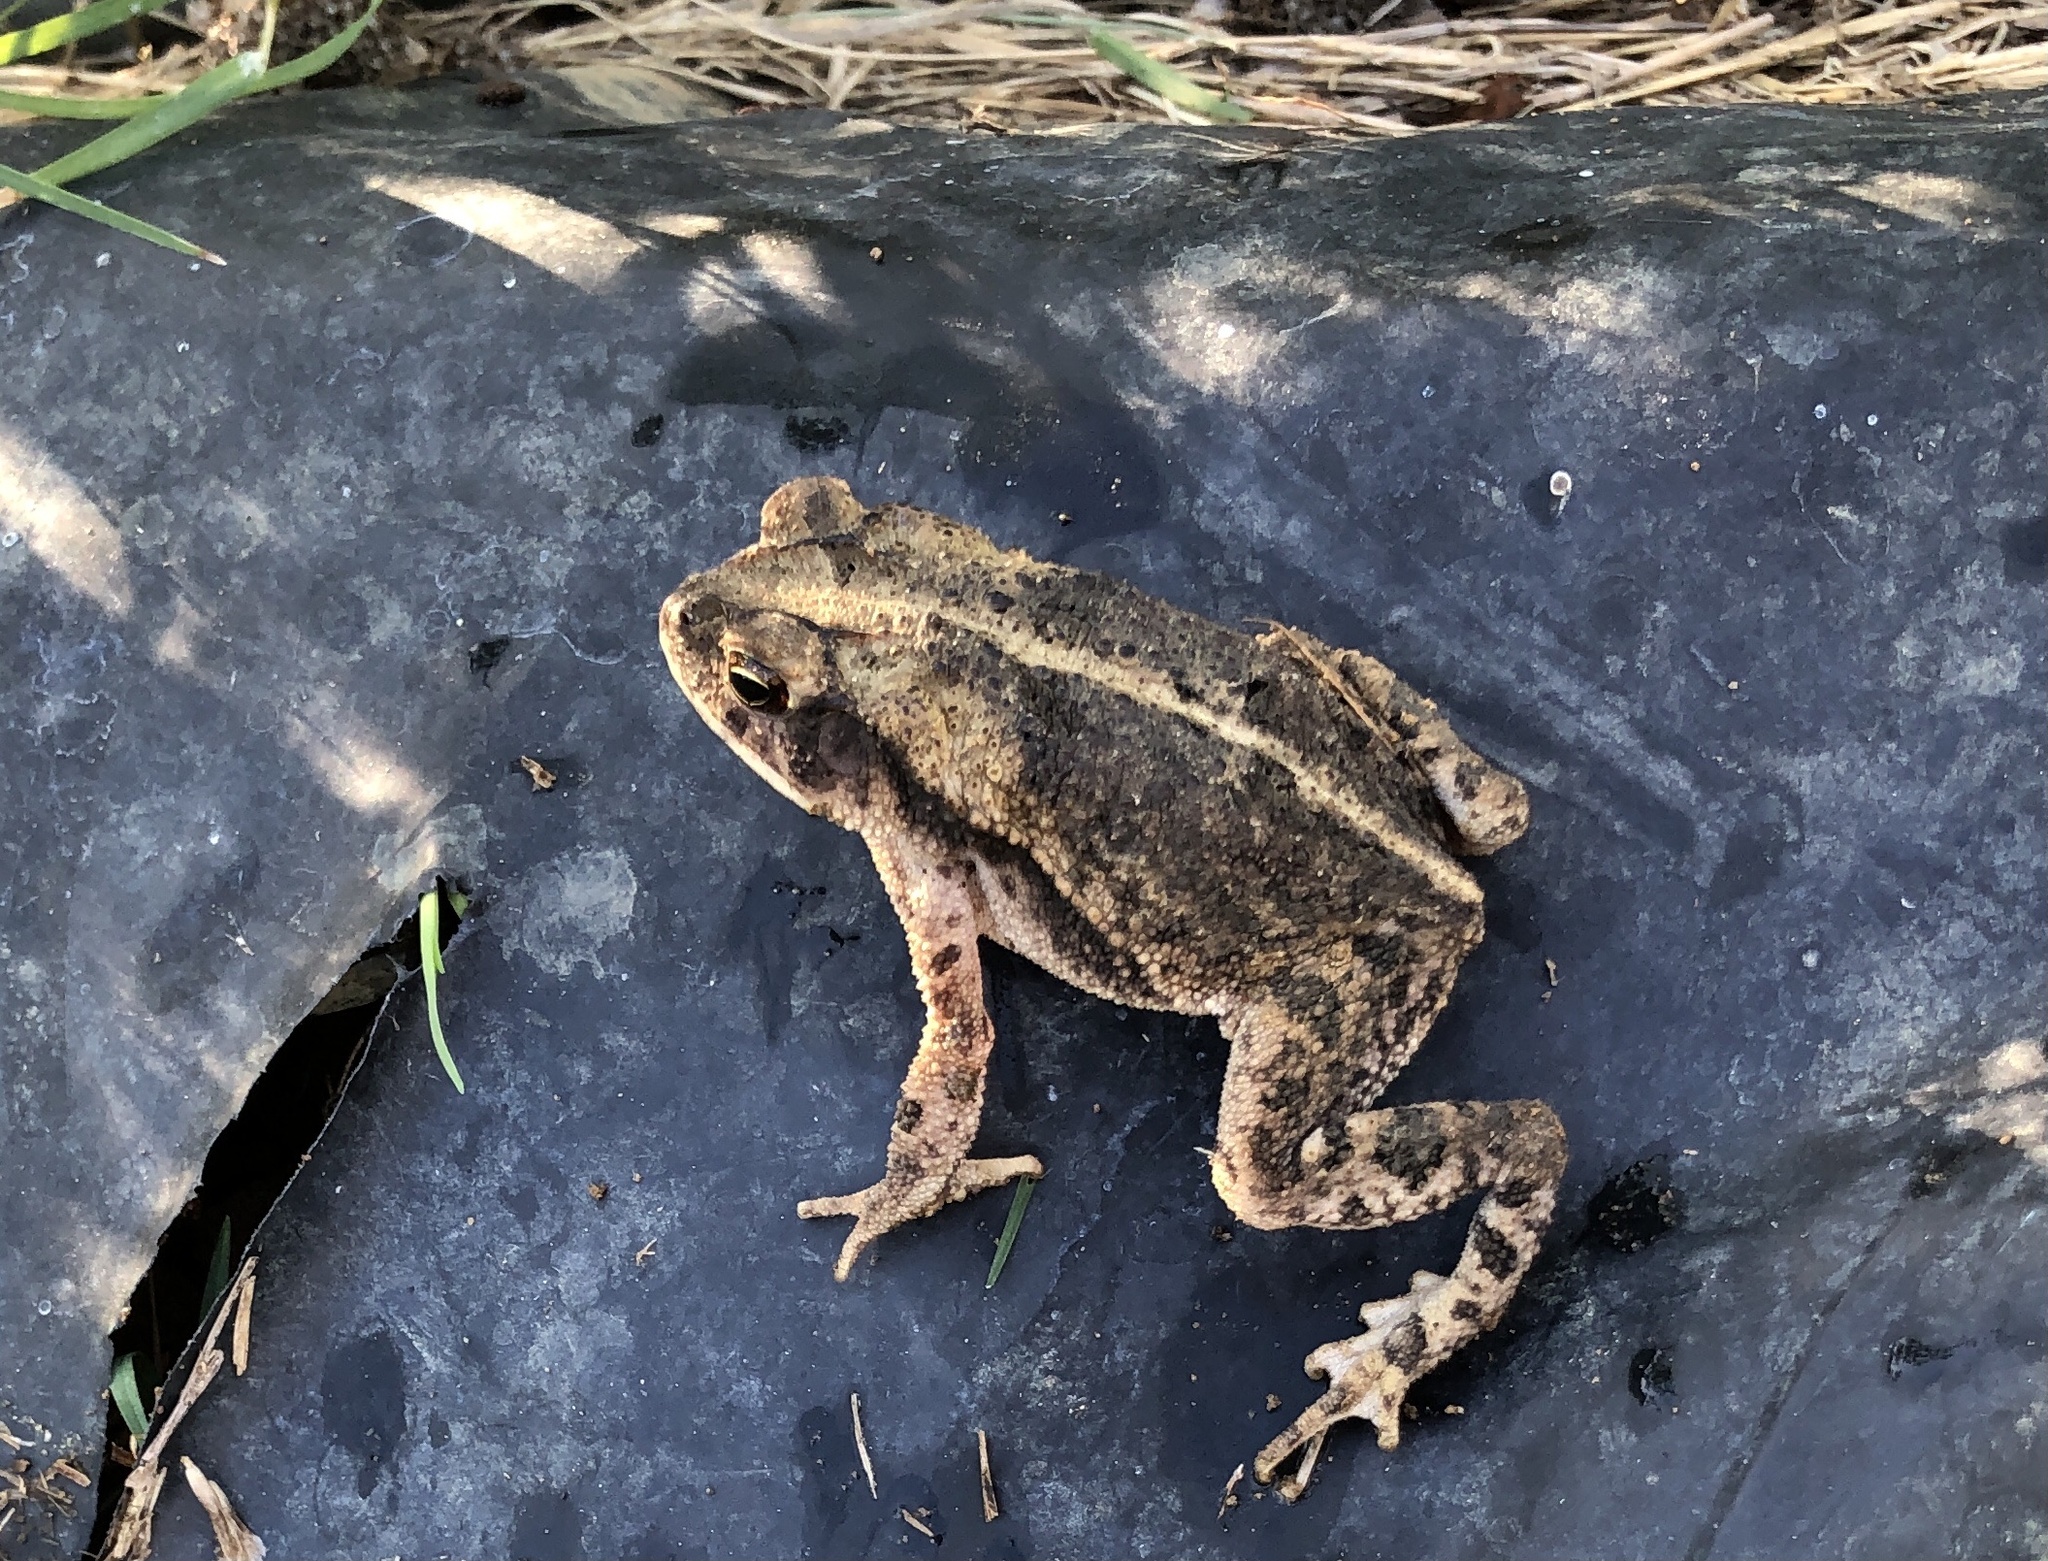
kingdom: Animalia
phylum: Chordata
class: Amphibia
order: Anura
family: Bufonidae
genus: Incilius
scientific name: Incilius nebulifer
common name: Gulf coast toad
